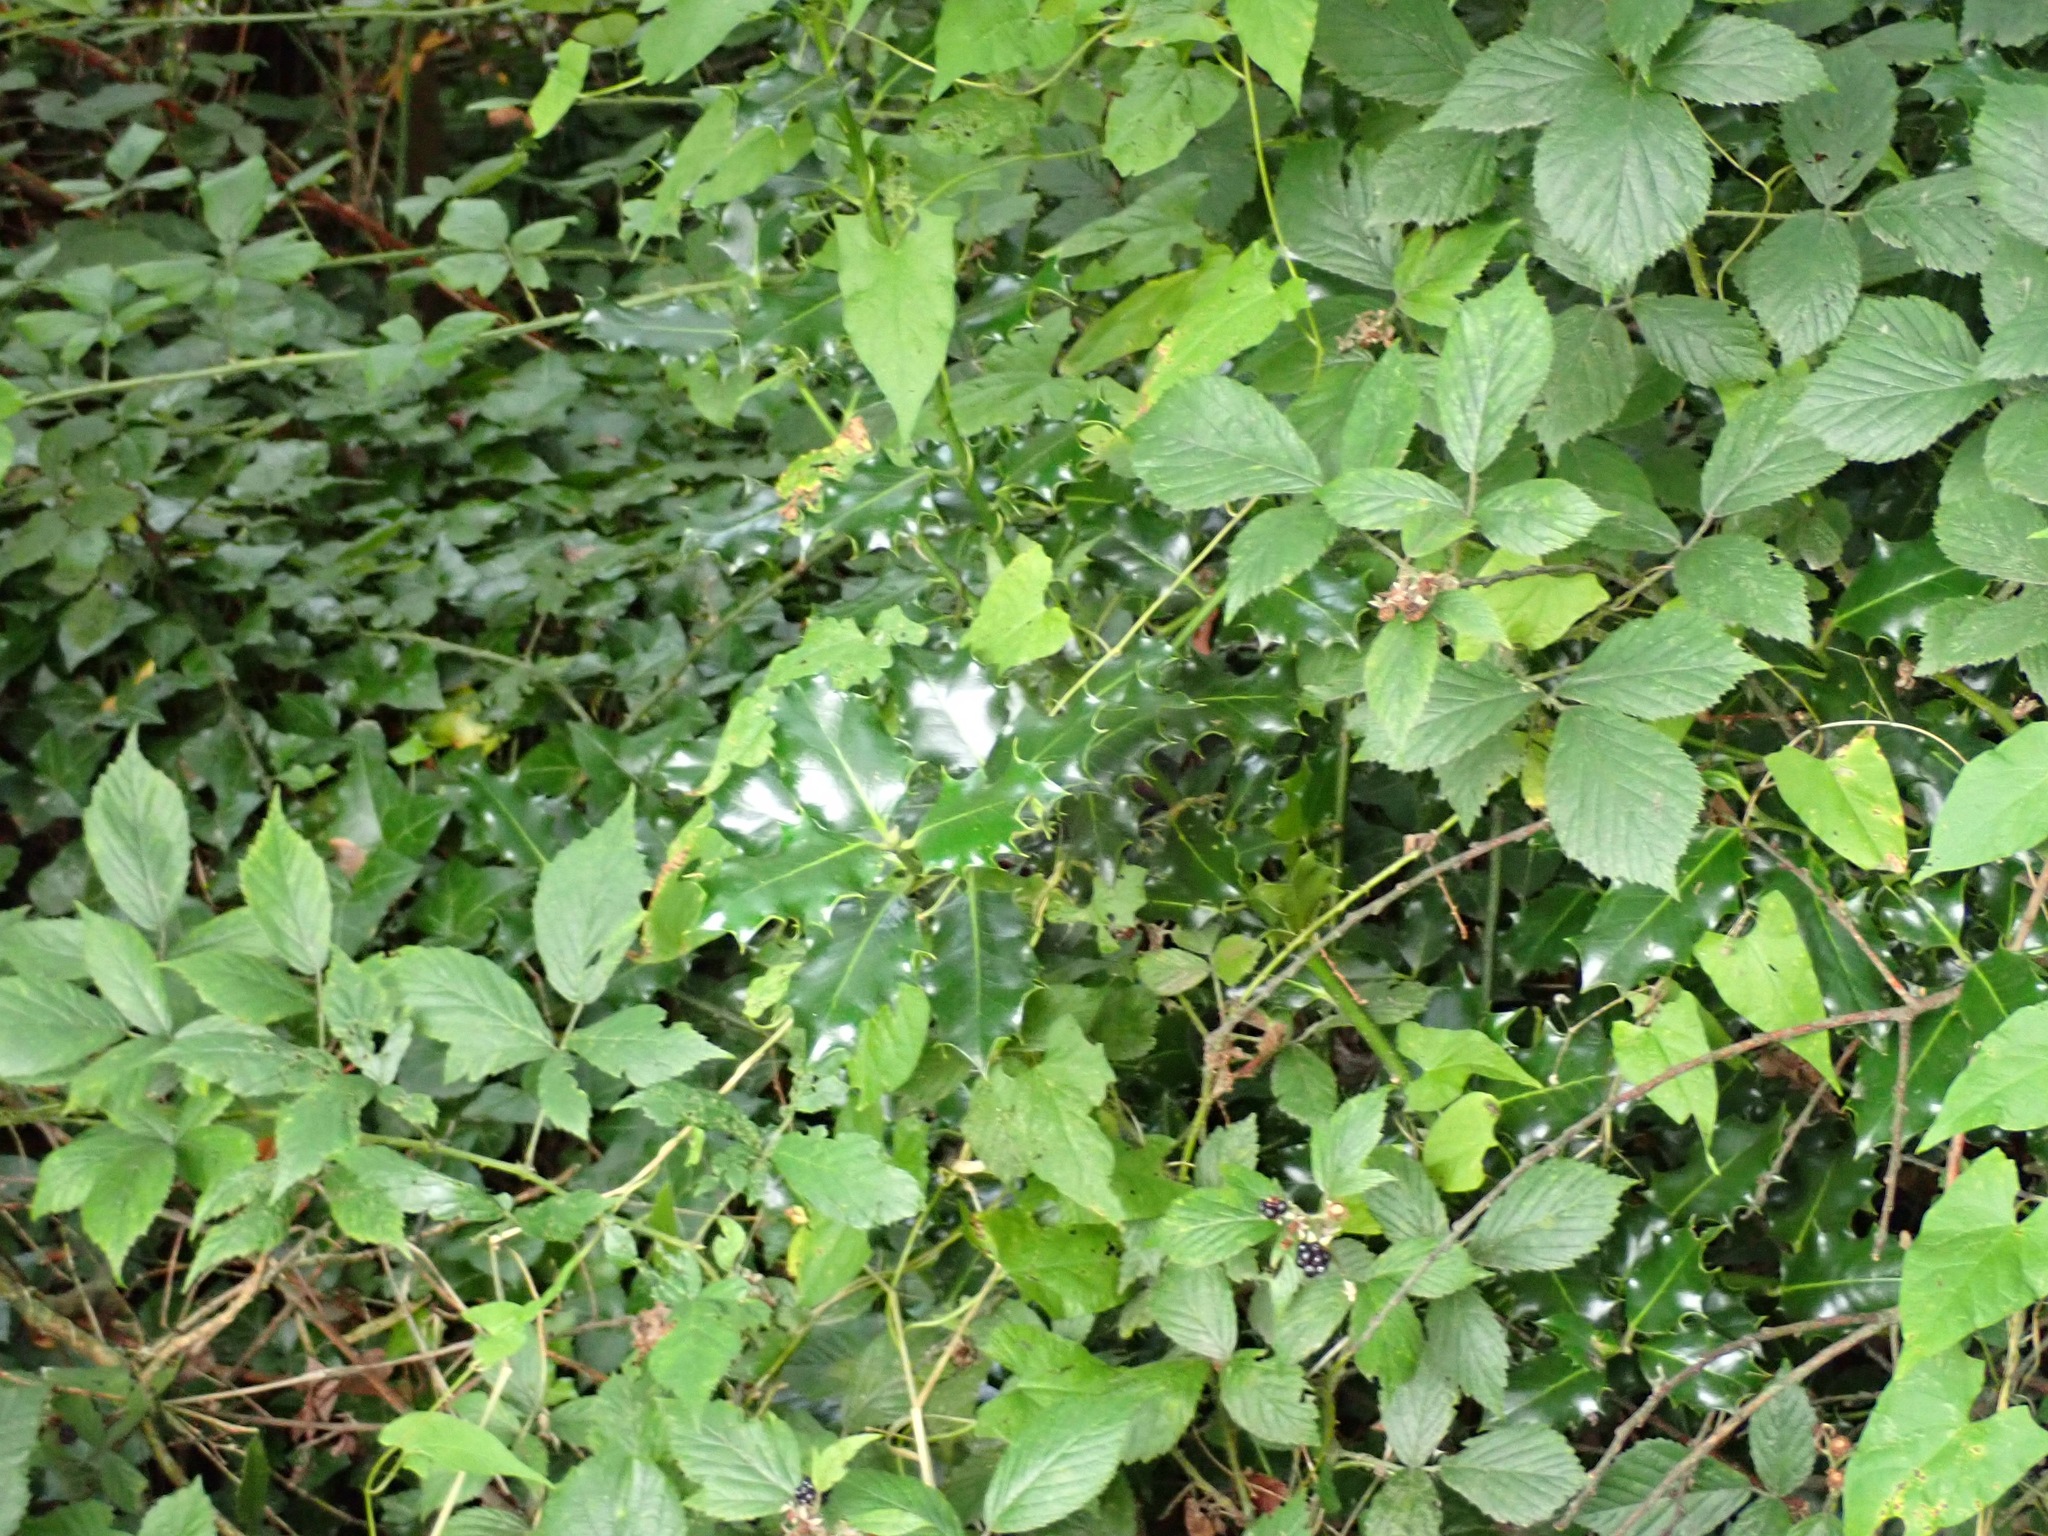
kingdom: Plantae
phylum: Tracheophyta
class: Magnoliopsida
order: Aquifoliales
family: Aquifoliaceae
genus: Ilex
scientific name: Ilex aquifolium
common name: English holly
